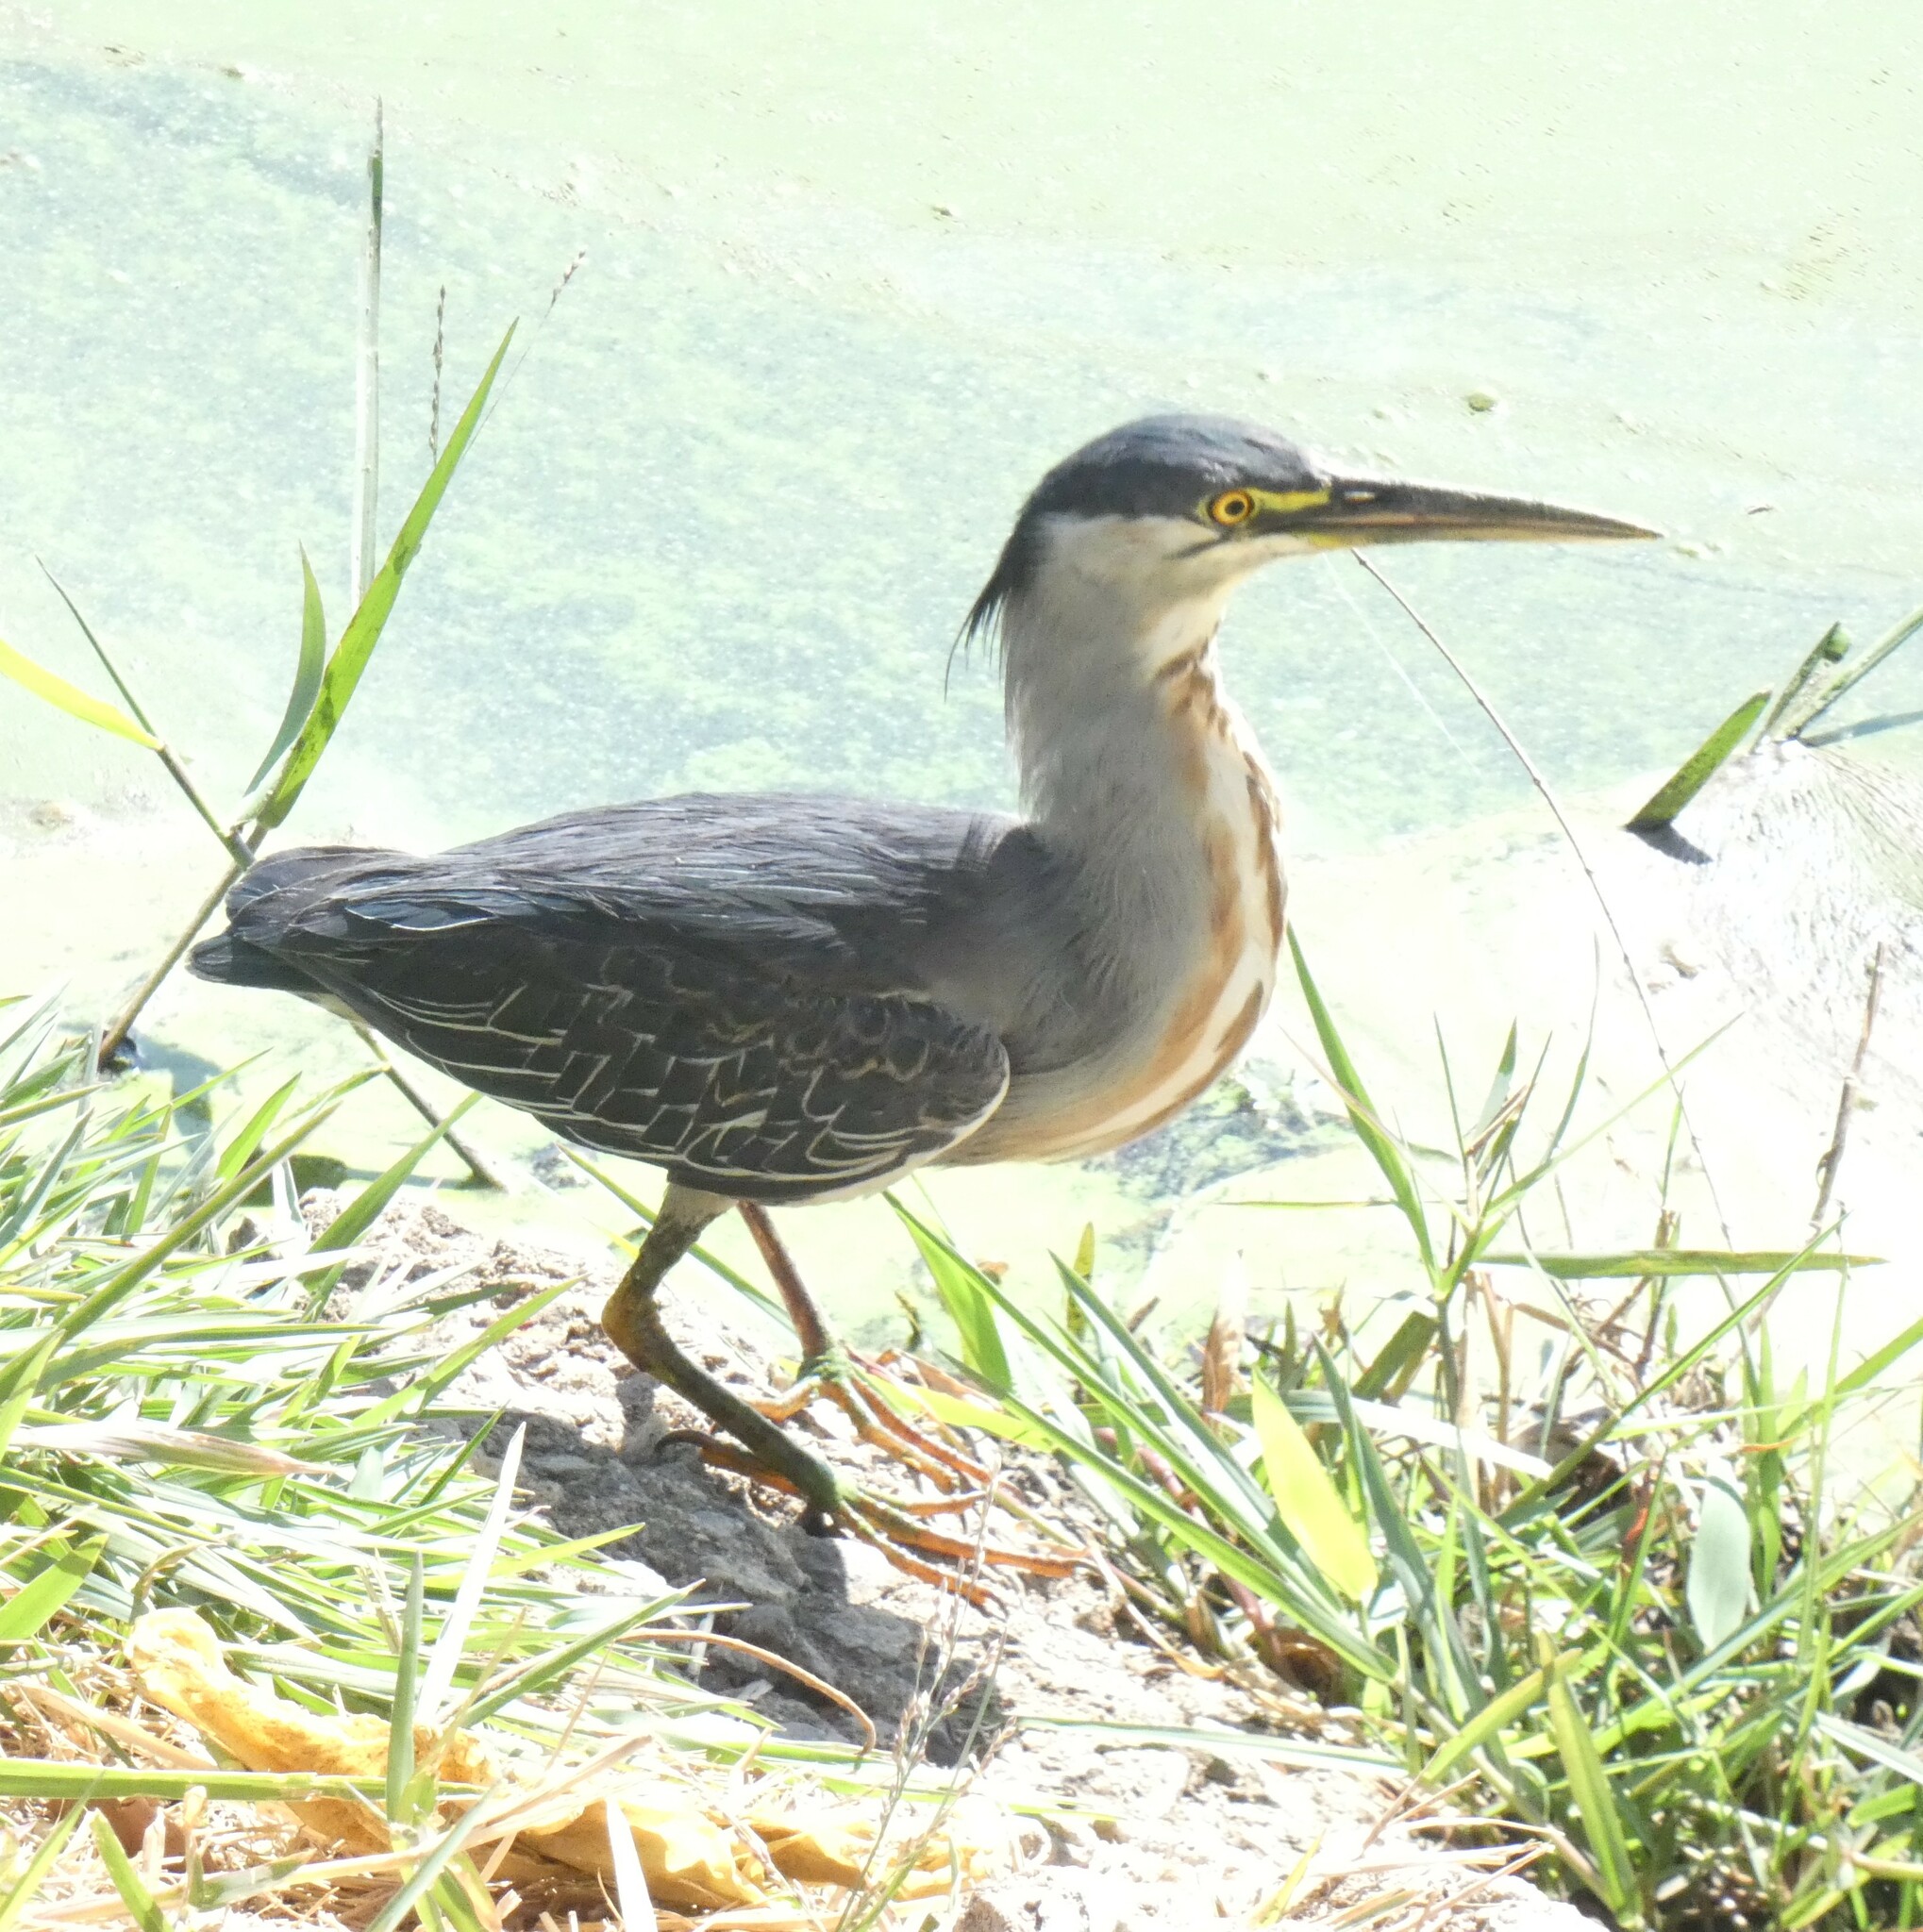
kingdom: Animalia
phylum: Chordata
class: Aves
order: Pelecaniformes
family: Ardeidae
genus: Butorides
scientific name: Butorides striata
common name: Striated heron
